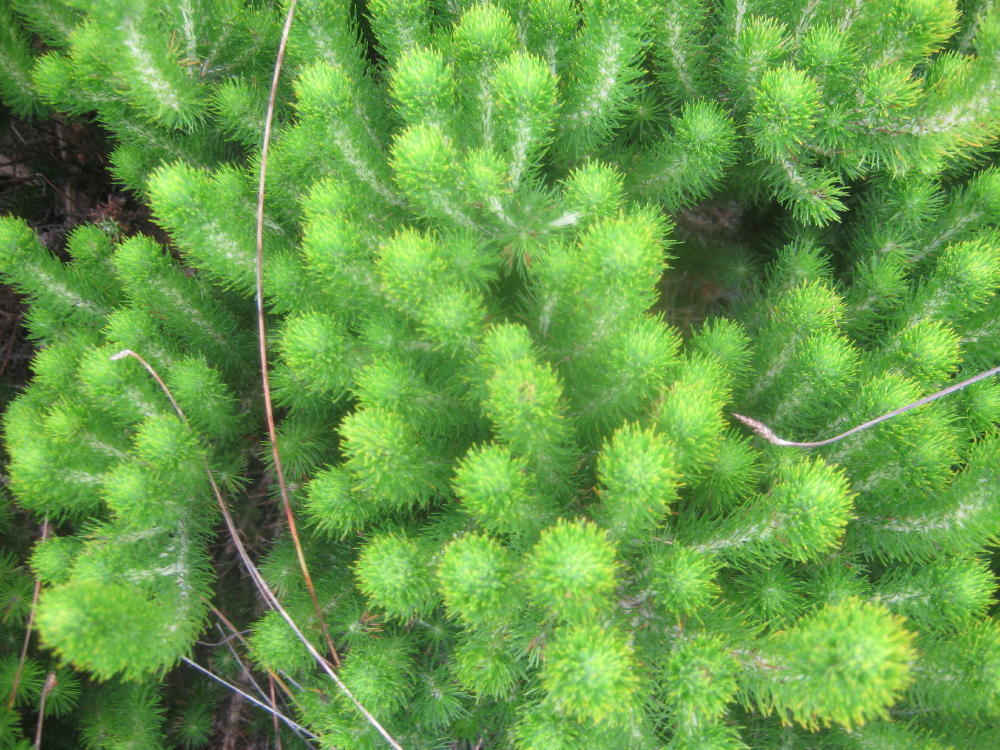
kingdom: Plantae
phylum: Tracheophyta
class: Magnoliopsida
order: Fabales
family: Fabaceae
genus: Aspalathus
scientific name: Aspalathus alopecurus
